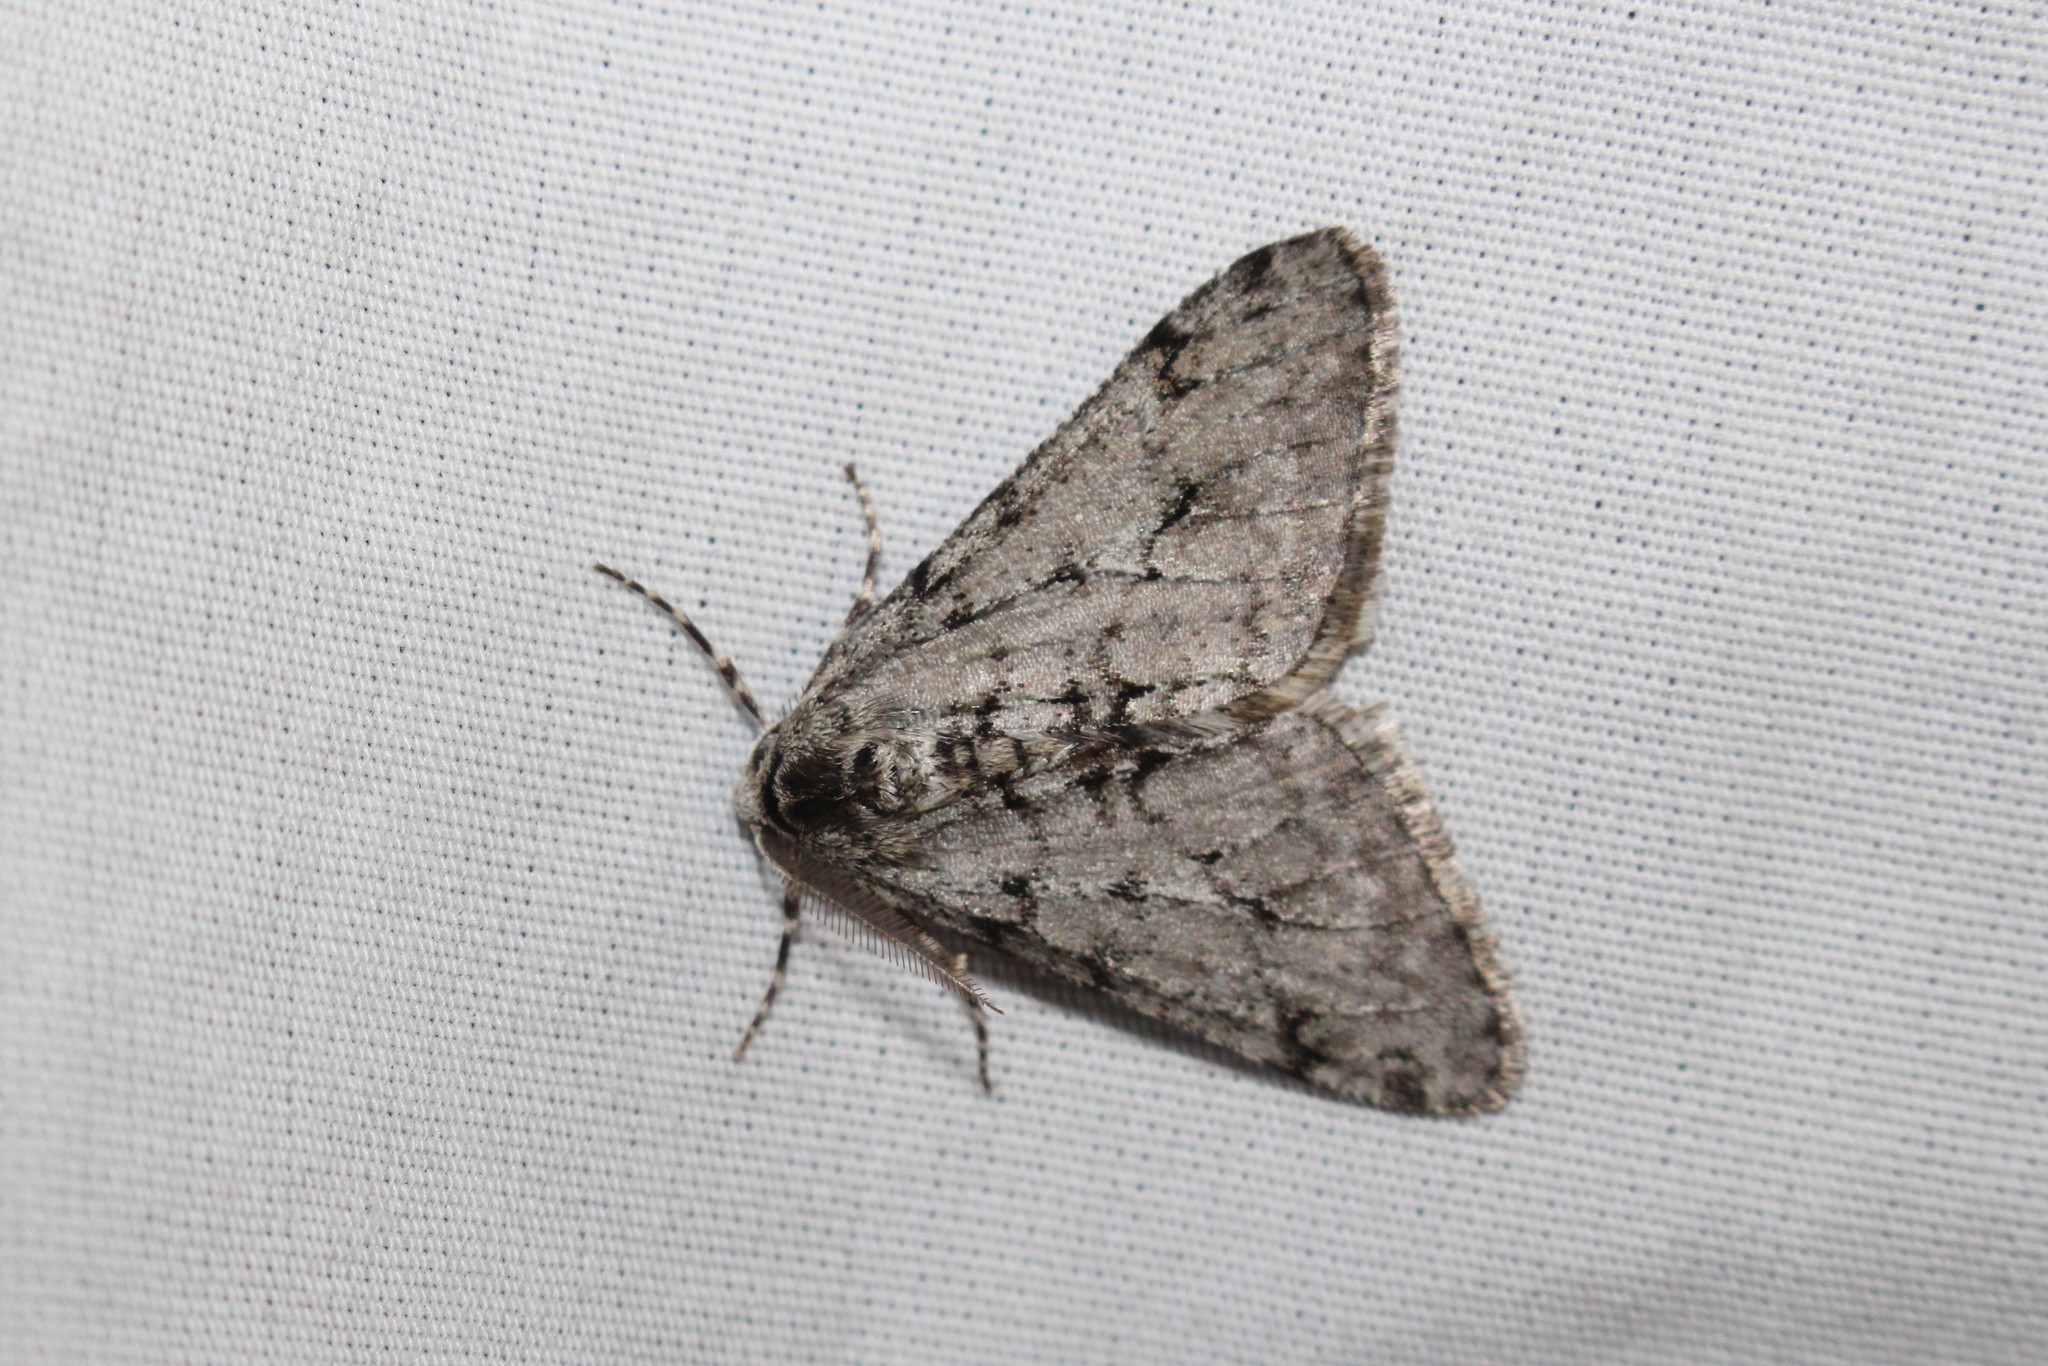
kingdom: Animalia
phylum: Arthropoda
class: Insecta
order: Lepidoptera
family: Geometridae
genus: Phigalia
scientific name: Phigalia strigataria
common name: Small phigalia
